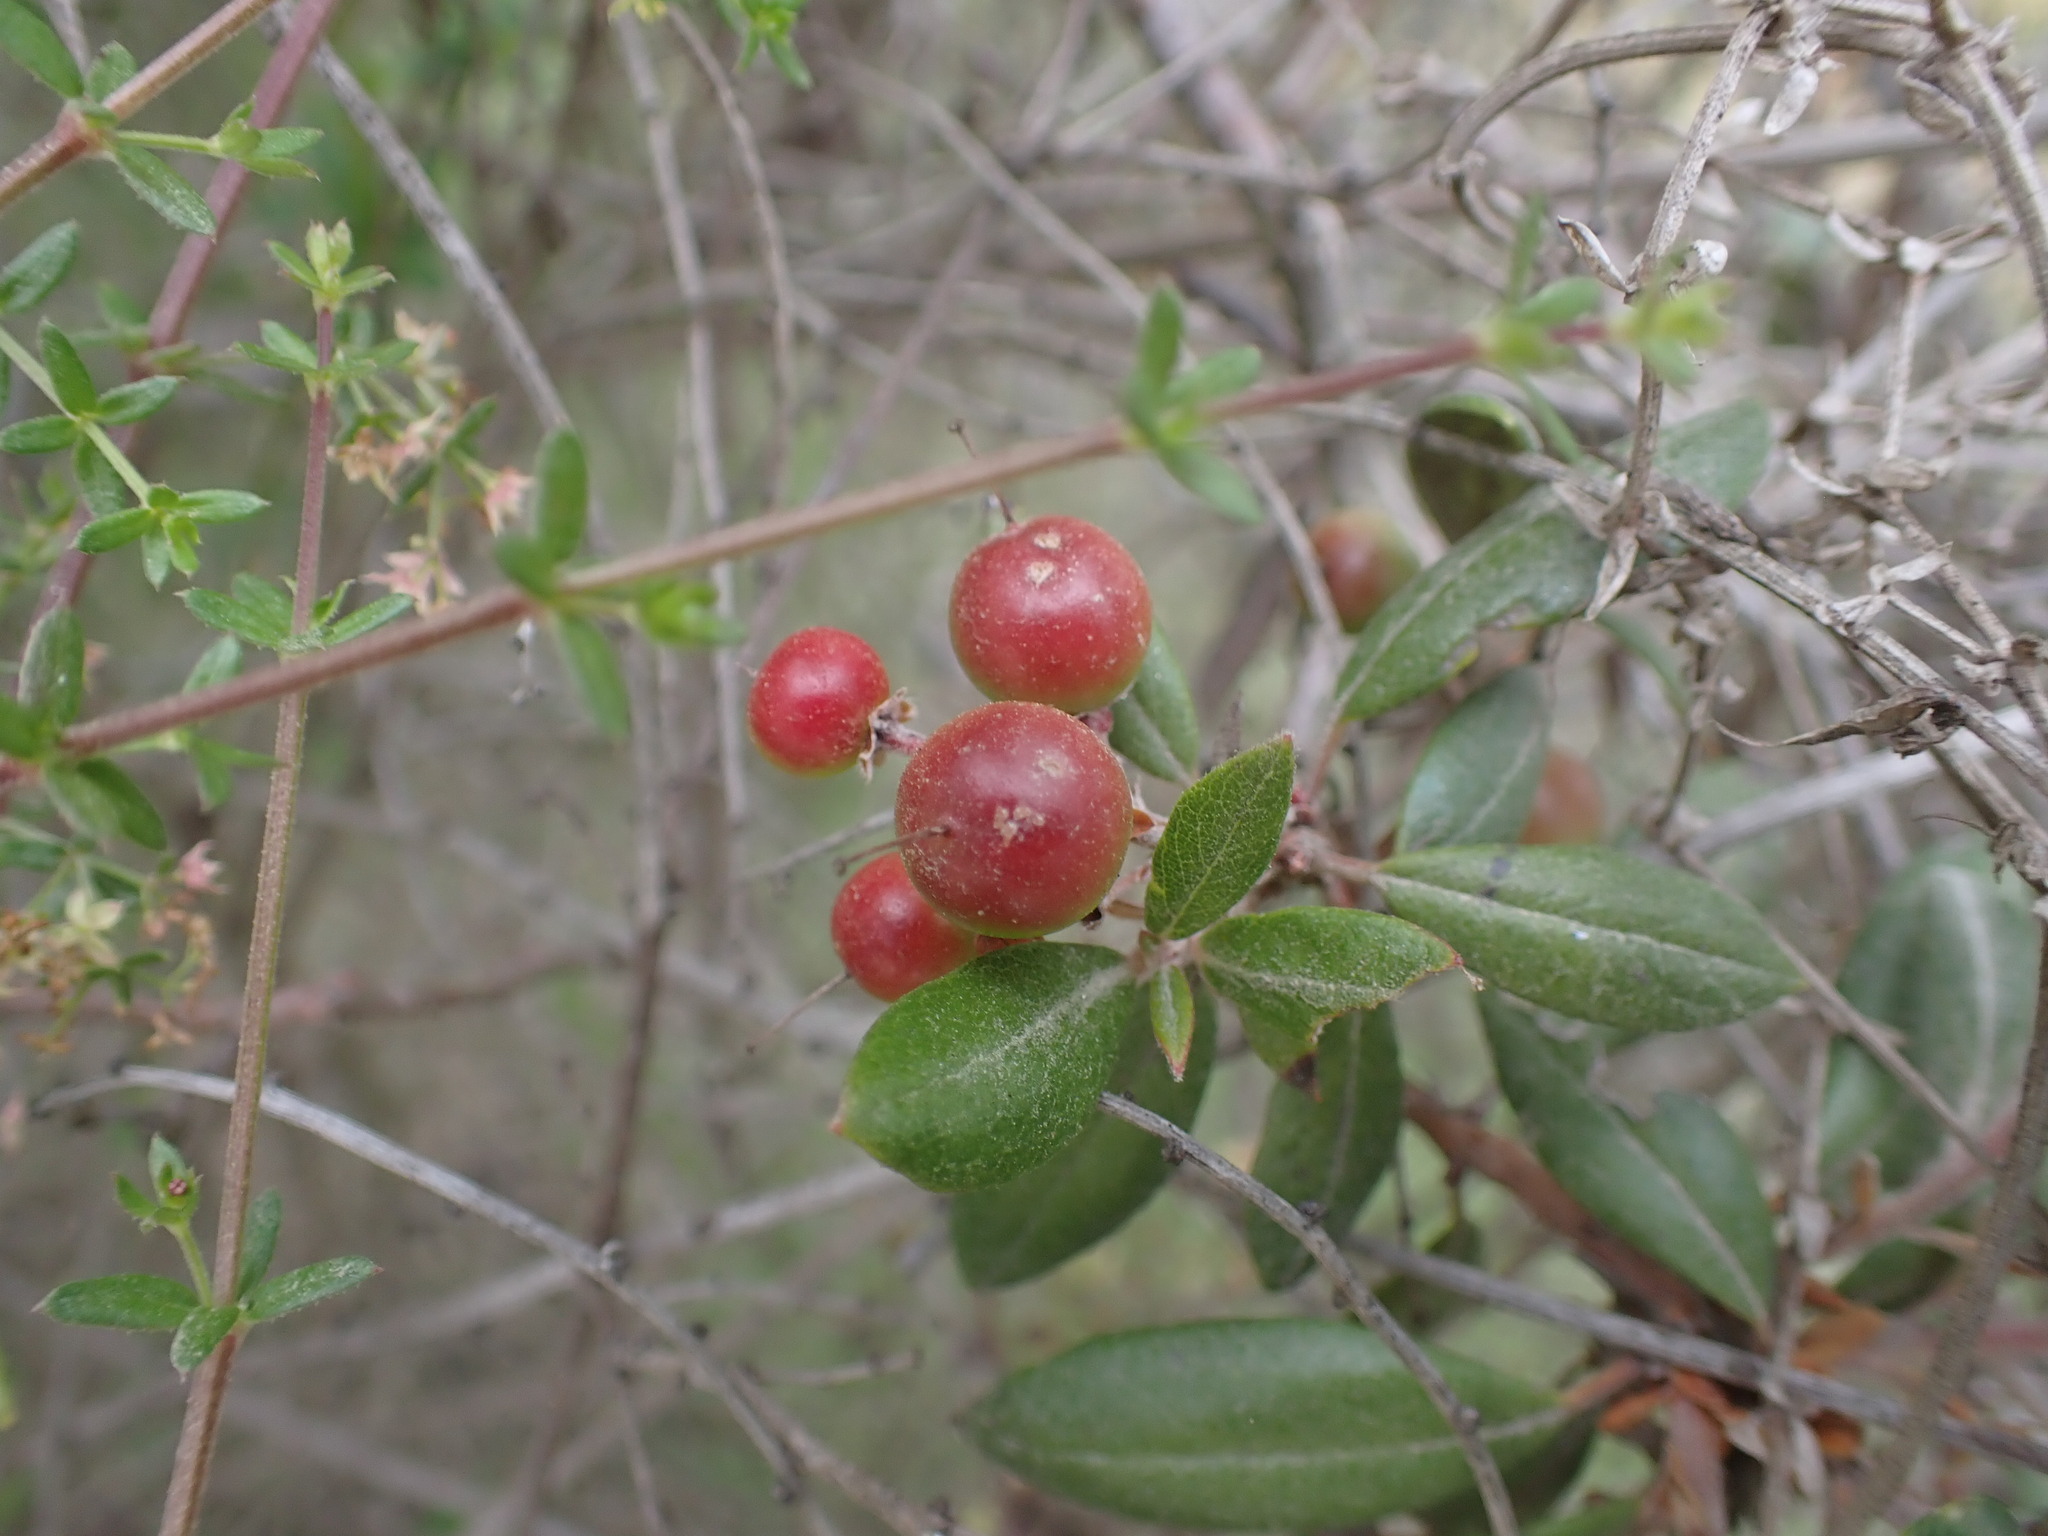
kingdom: Plantae
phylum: Tracheophyta
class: Magnoliopsida
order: Ericales
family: Ericaceae
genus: Arctostaphylos
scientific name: Arctostaphylos bicolor
